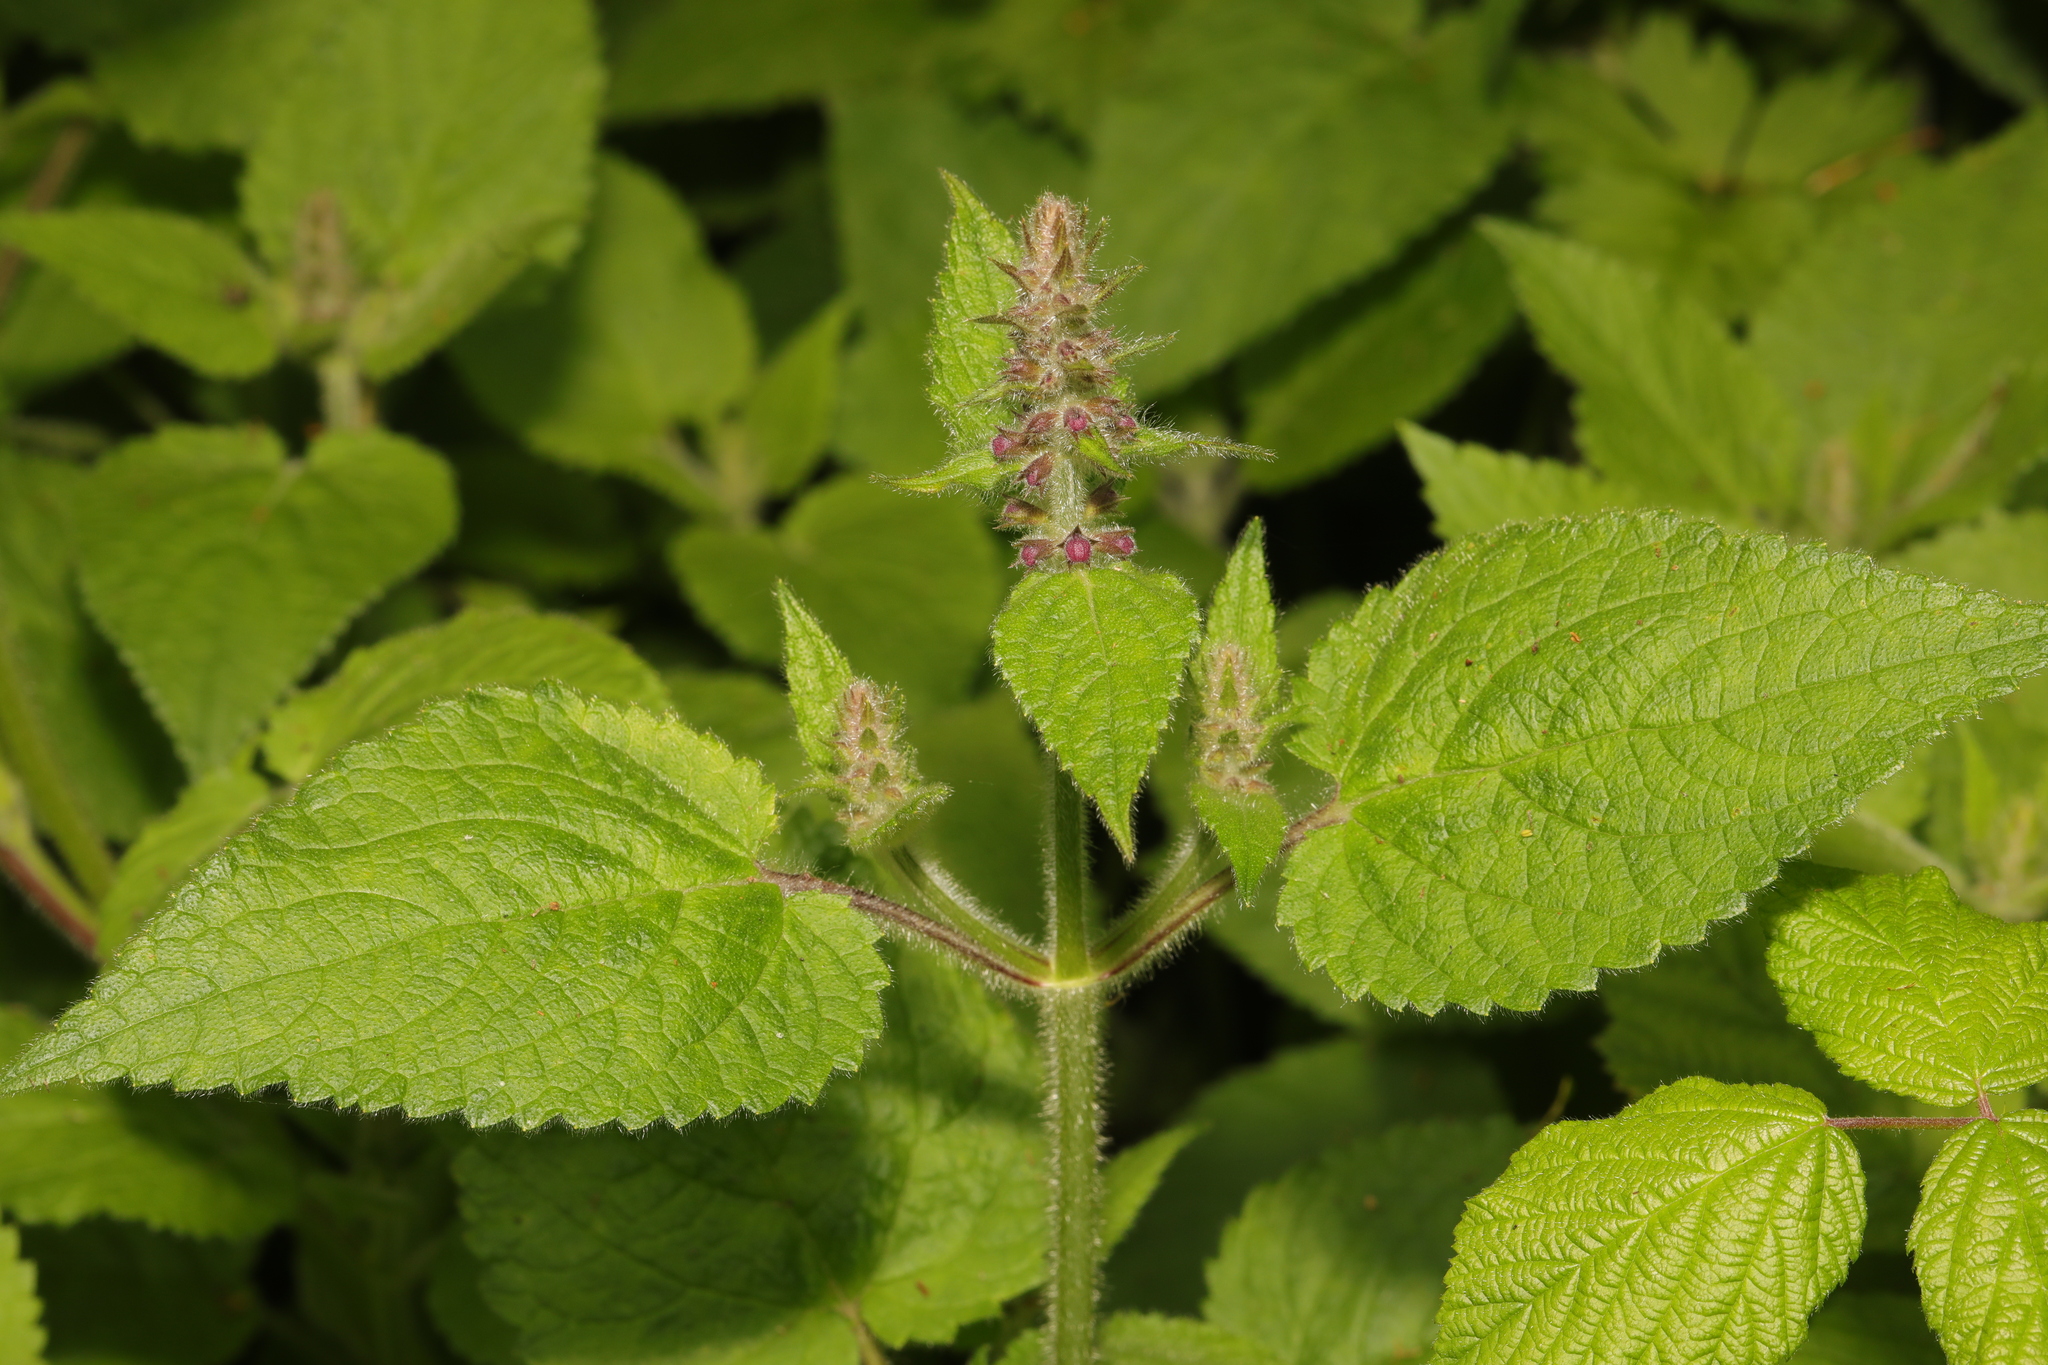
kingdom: Plantae
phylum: Tracheophyta
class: Magnoliopsida
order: Lamiales
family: Lamiaceae
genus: Stachys
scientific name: Stachys sylvatica
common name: Hedge woundwort
